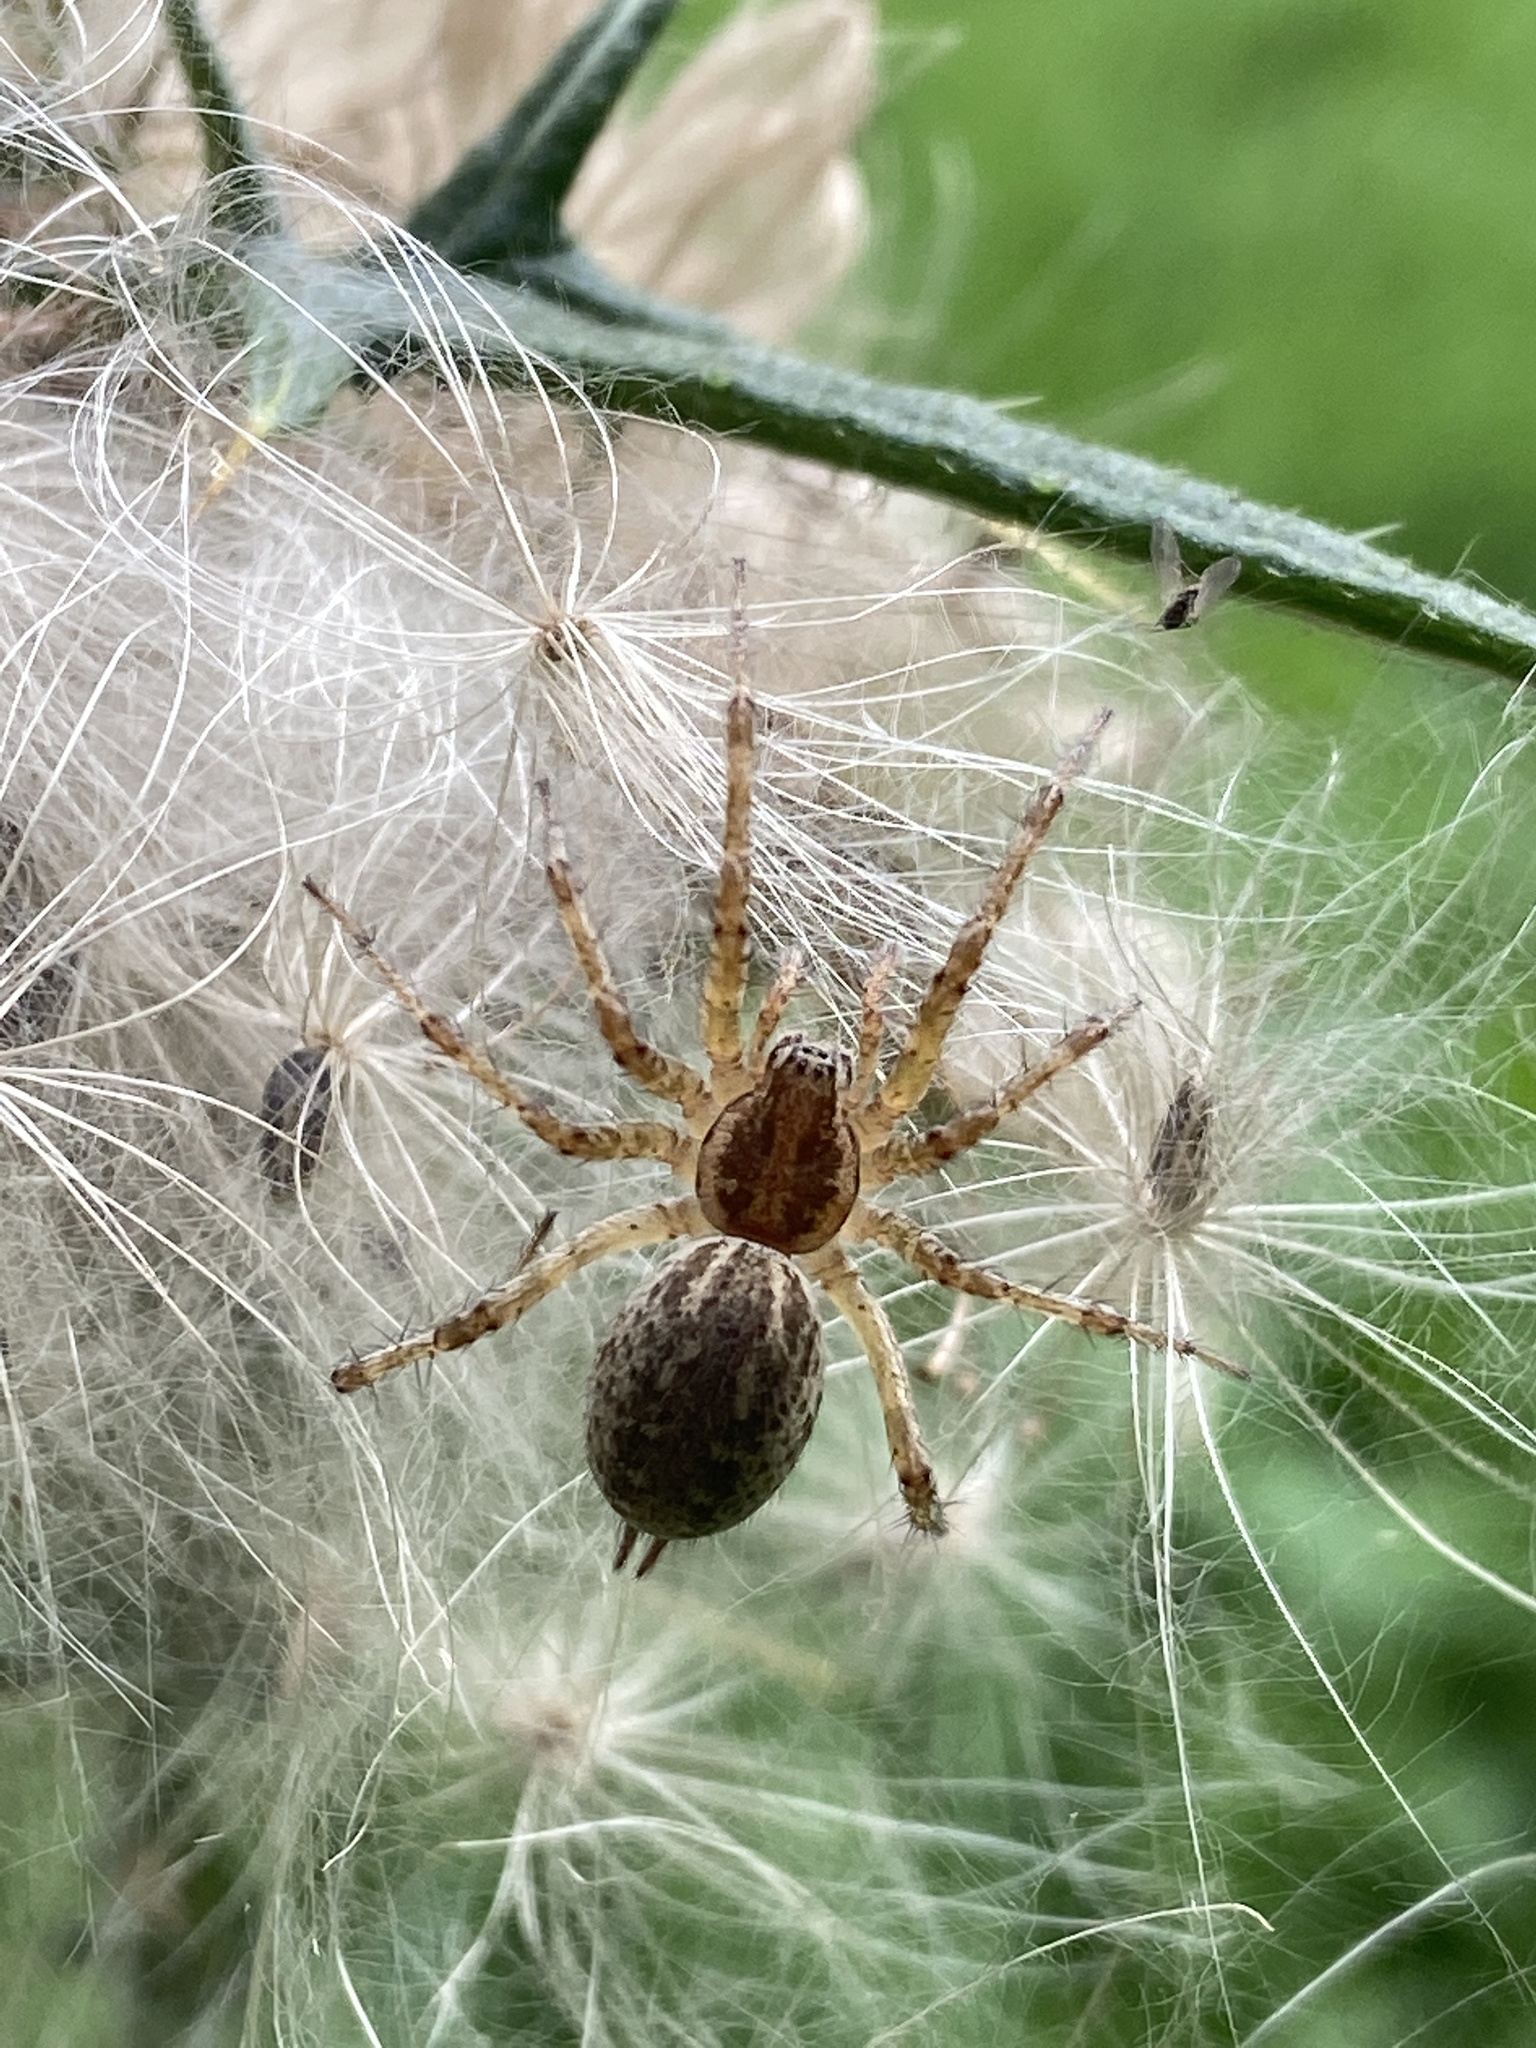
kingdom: Animalia
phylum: Arthropoda
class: Arachnida
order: Araneae
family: Agelenidae
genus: Allagelena
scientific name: Allagelena gracilens
